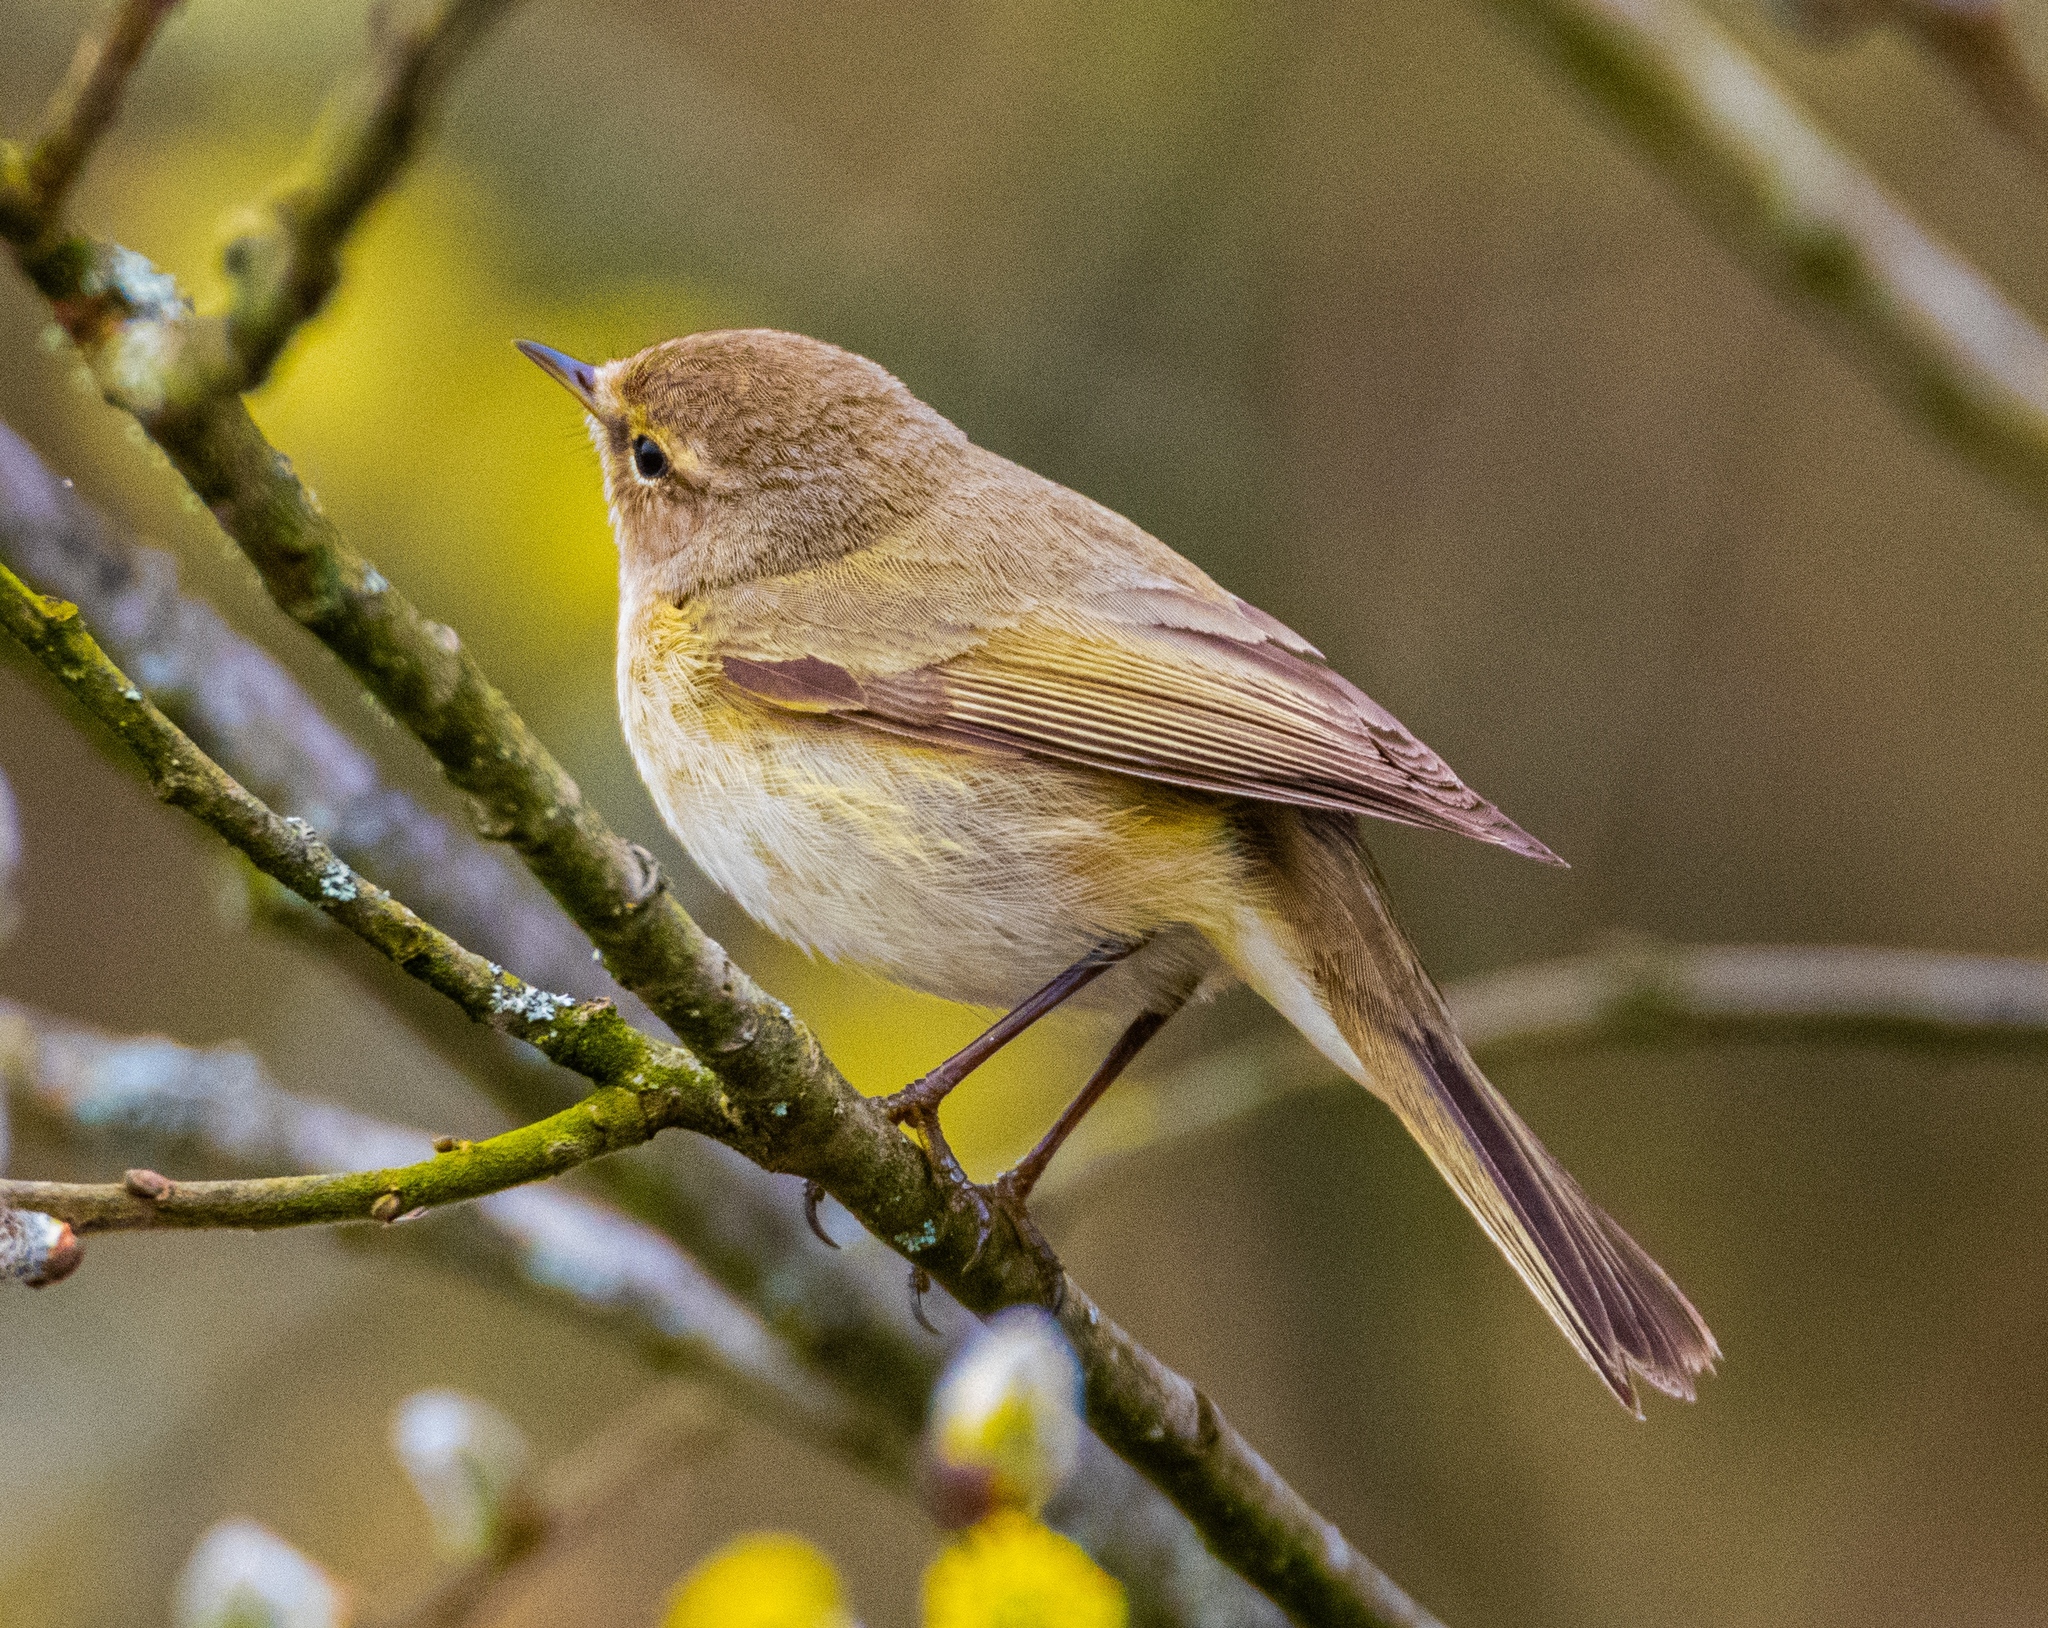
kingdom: Animalia
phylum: Chordata
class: Aves
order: Passeriformes
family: Phylloscopidae
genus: Phylloscopus
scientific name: Phylloscopus collybita
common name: Common chiffchaff
